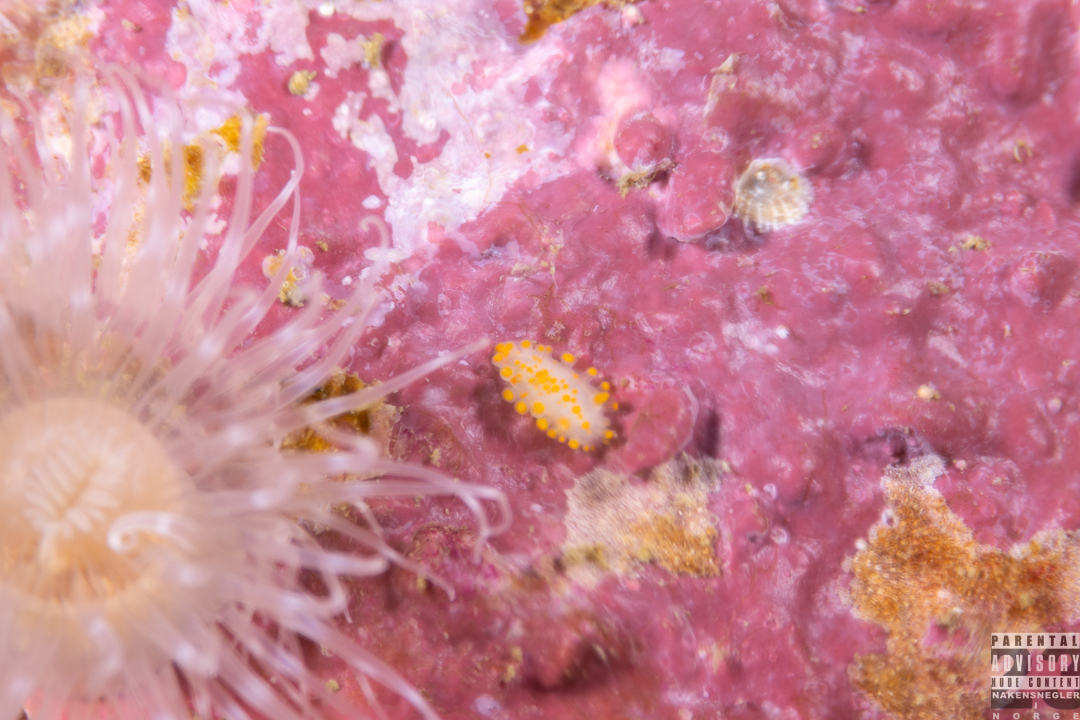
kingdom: Animalia
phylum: Mollusca
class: Gastropoda
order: Nudibranchia
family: Polyceridae
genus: Limacia
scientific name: Limacia clavigera
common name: Orange-clubbed sea slug
